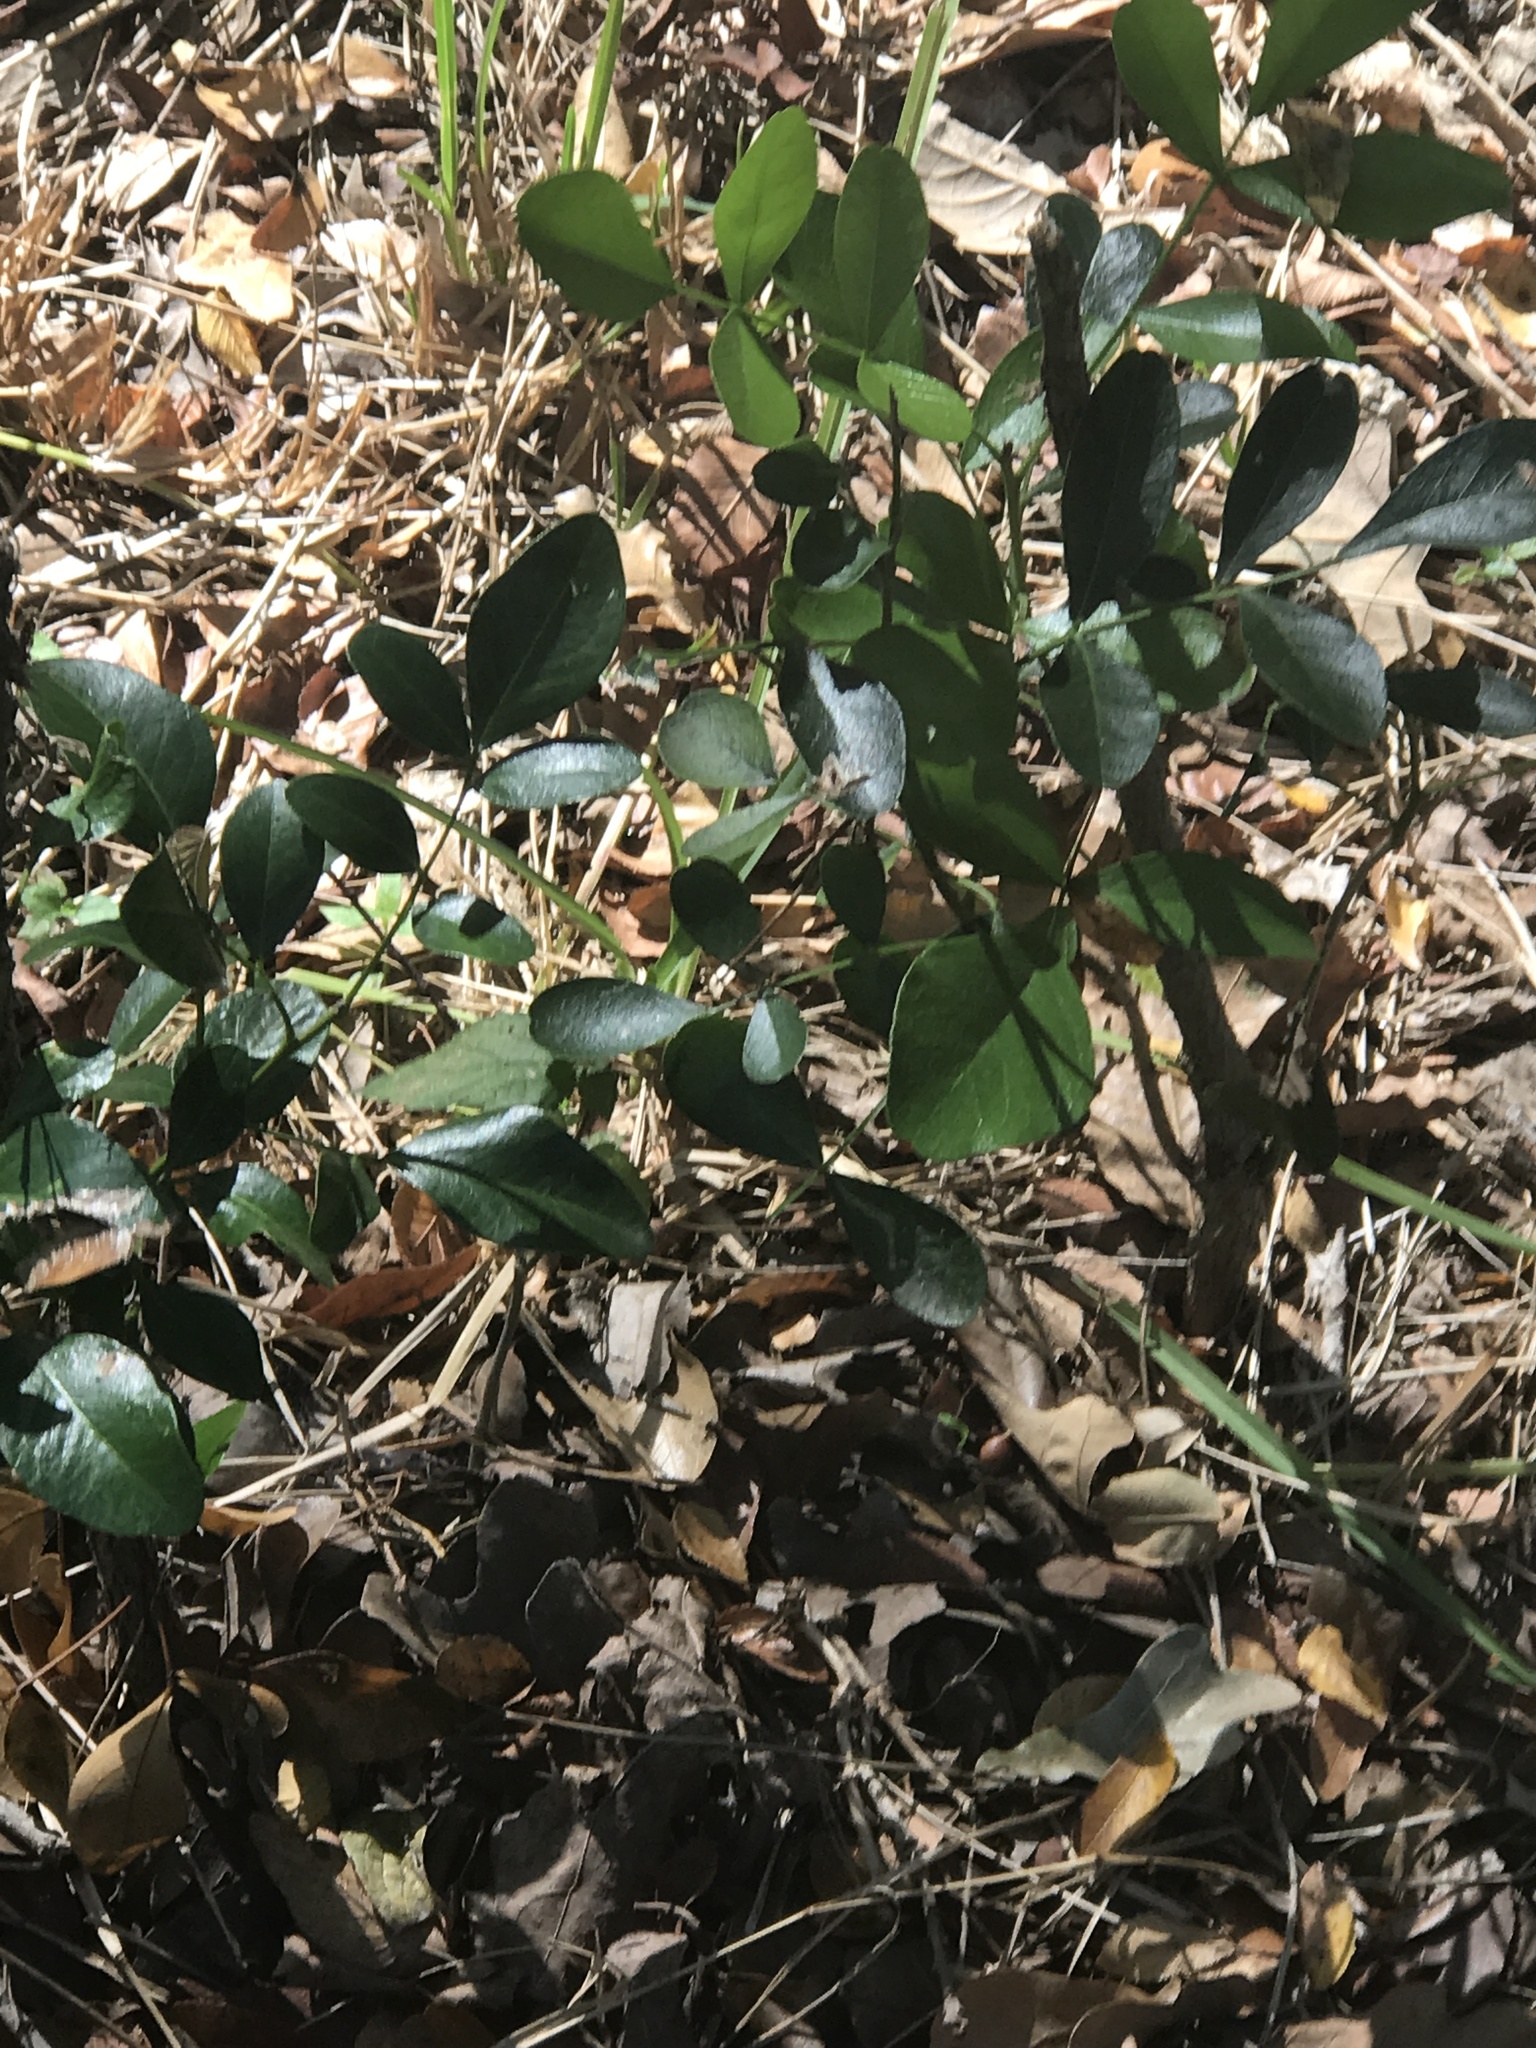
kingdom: Plantae
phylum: Tracheophyta
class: Magnoliopsida
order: Fabales
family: Fabaceae
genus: Dermatophyllum
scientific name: Dermatophyllum secundiflorum
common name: Texas-mountain-laurel
